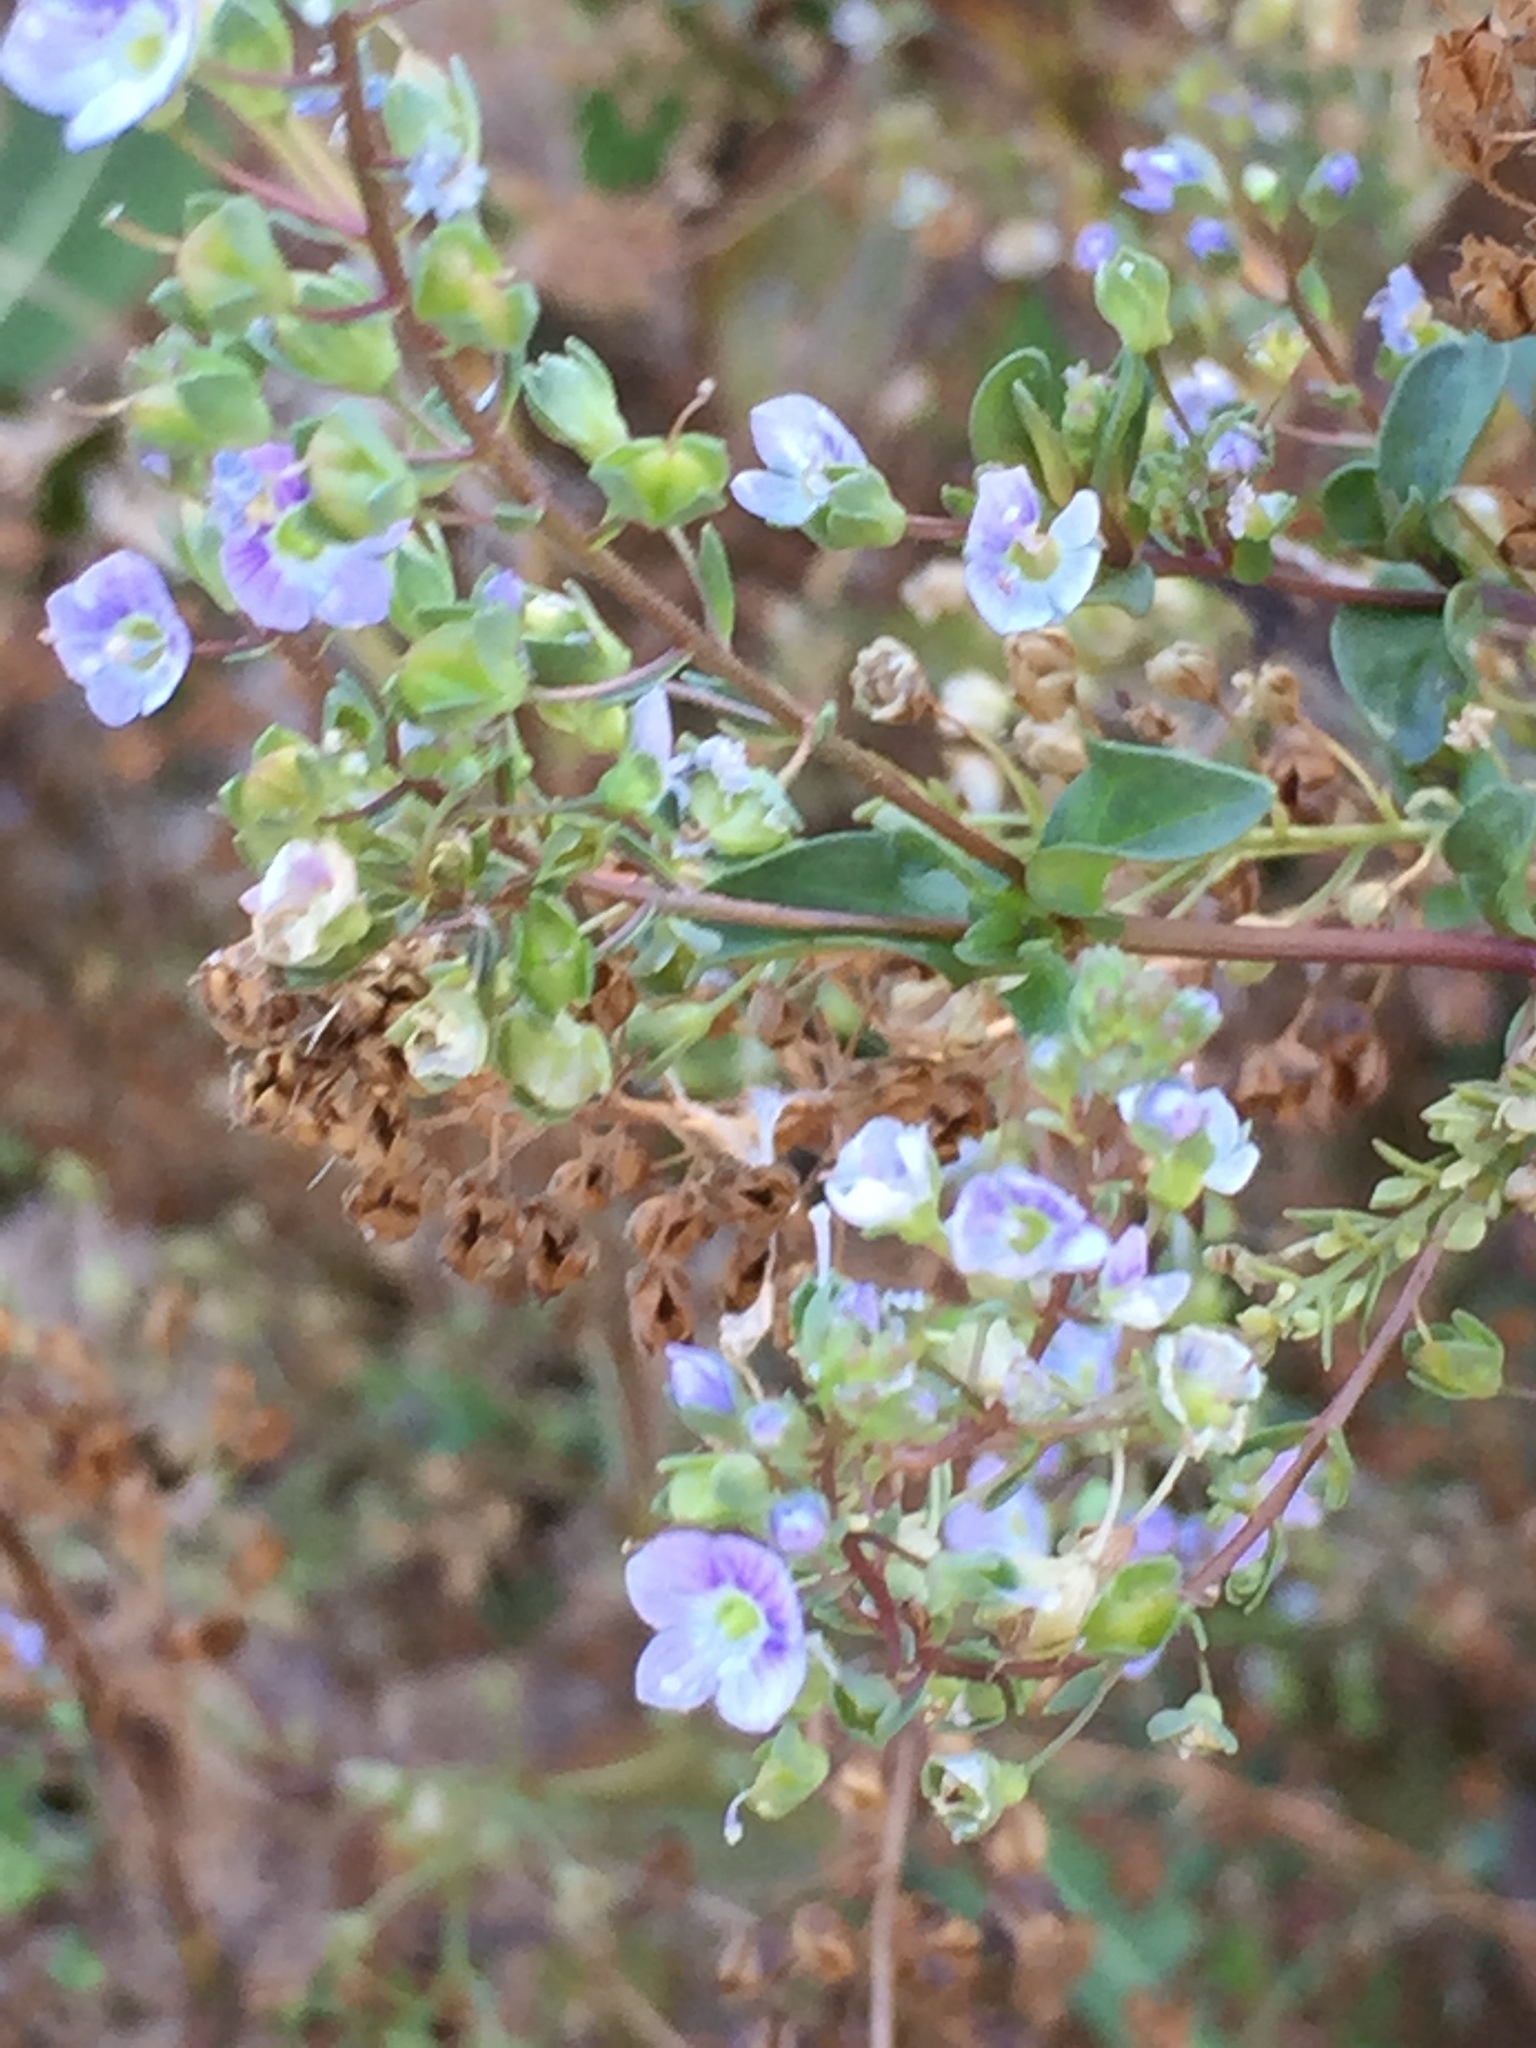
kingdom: Plantae
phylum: Tracheophyta
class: Magnoliopsida
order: Lamiales
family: Plantaginaceae
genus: Veronica
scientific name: Veronica anagallis-aquatica
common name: Water speedwell
